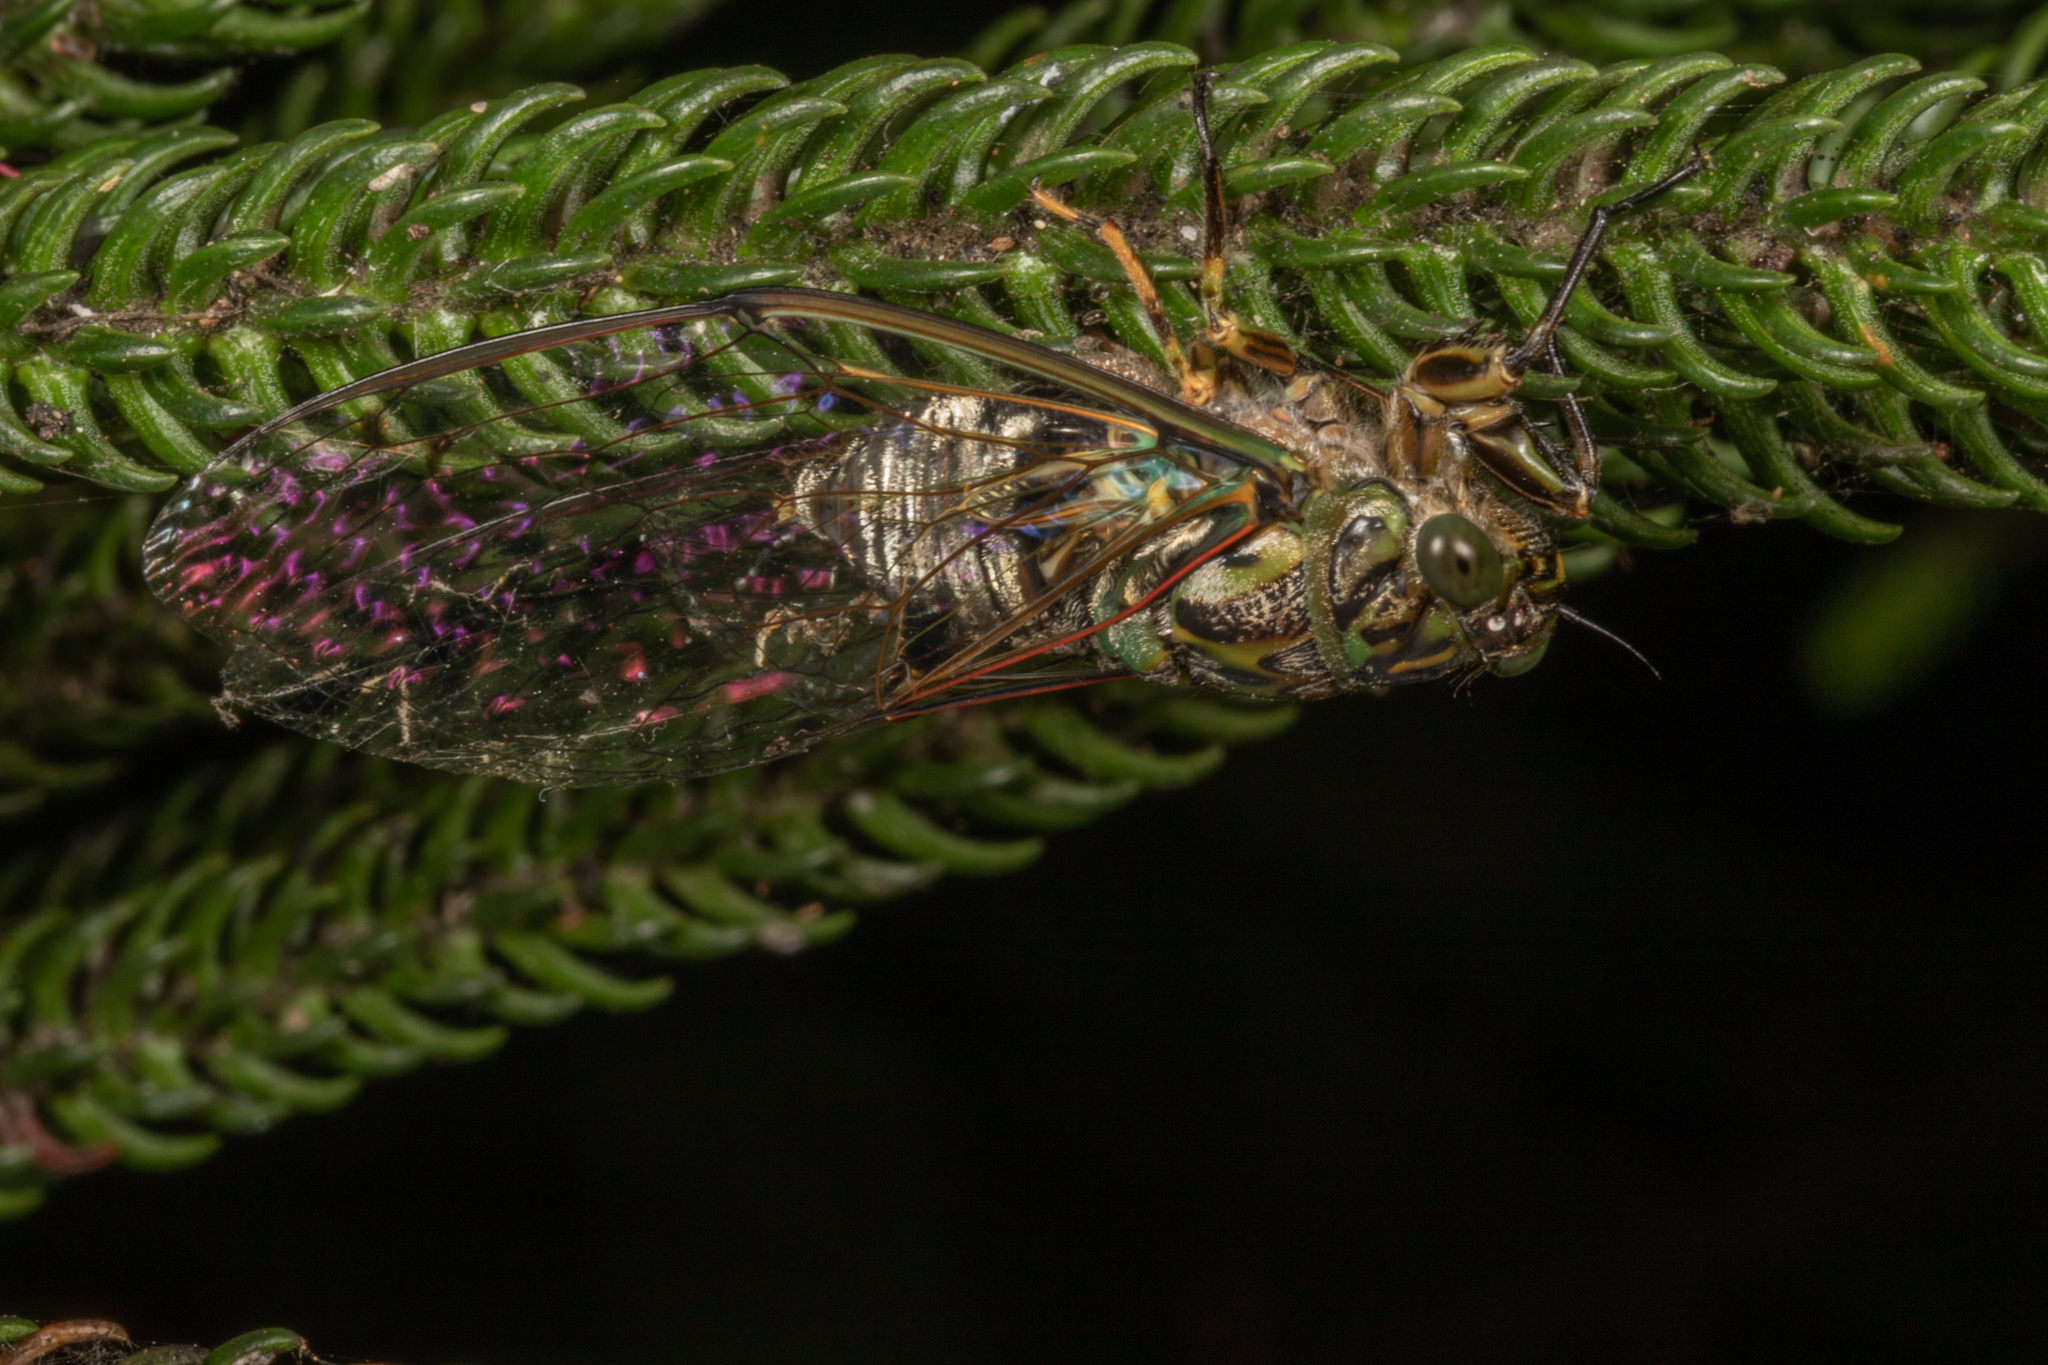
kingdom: Animalia
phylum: Arthropoda
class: Insecta
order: Hemiptera
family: Cicadidae
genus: Amphipsalta
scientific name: Amphipsalta zelandica
